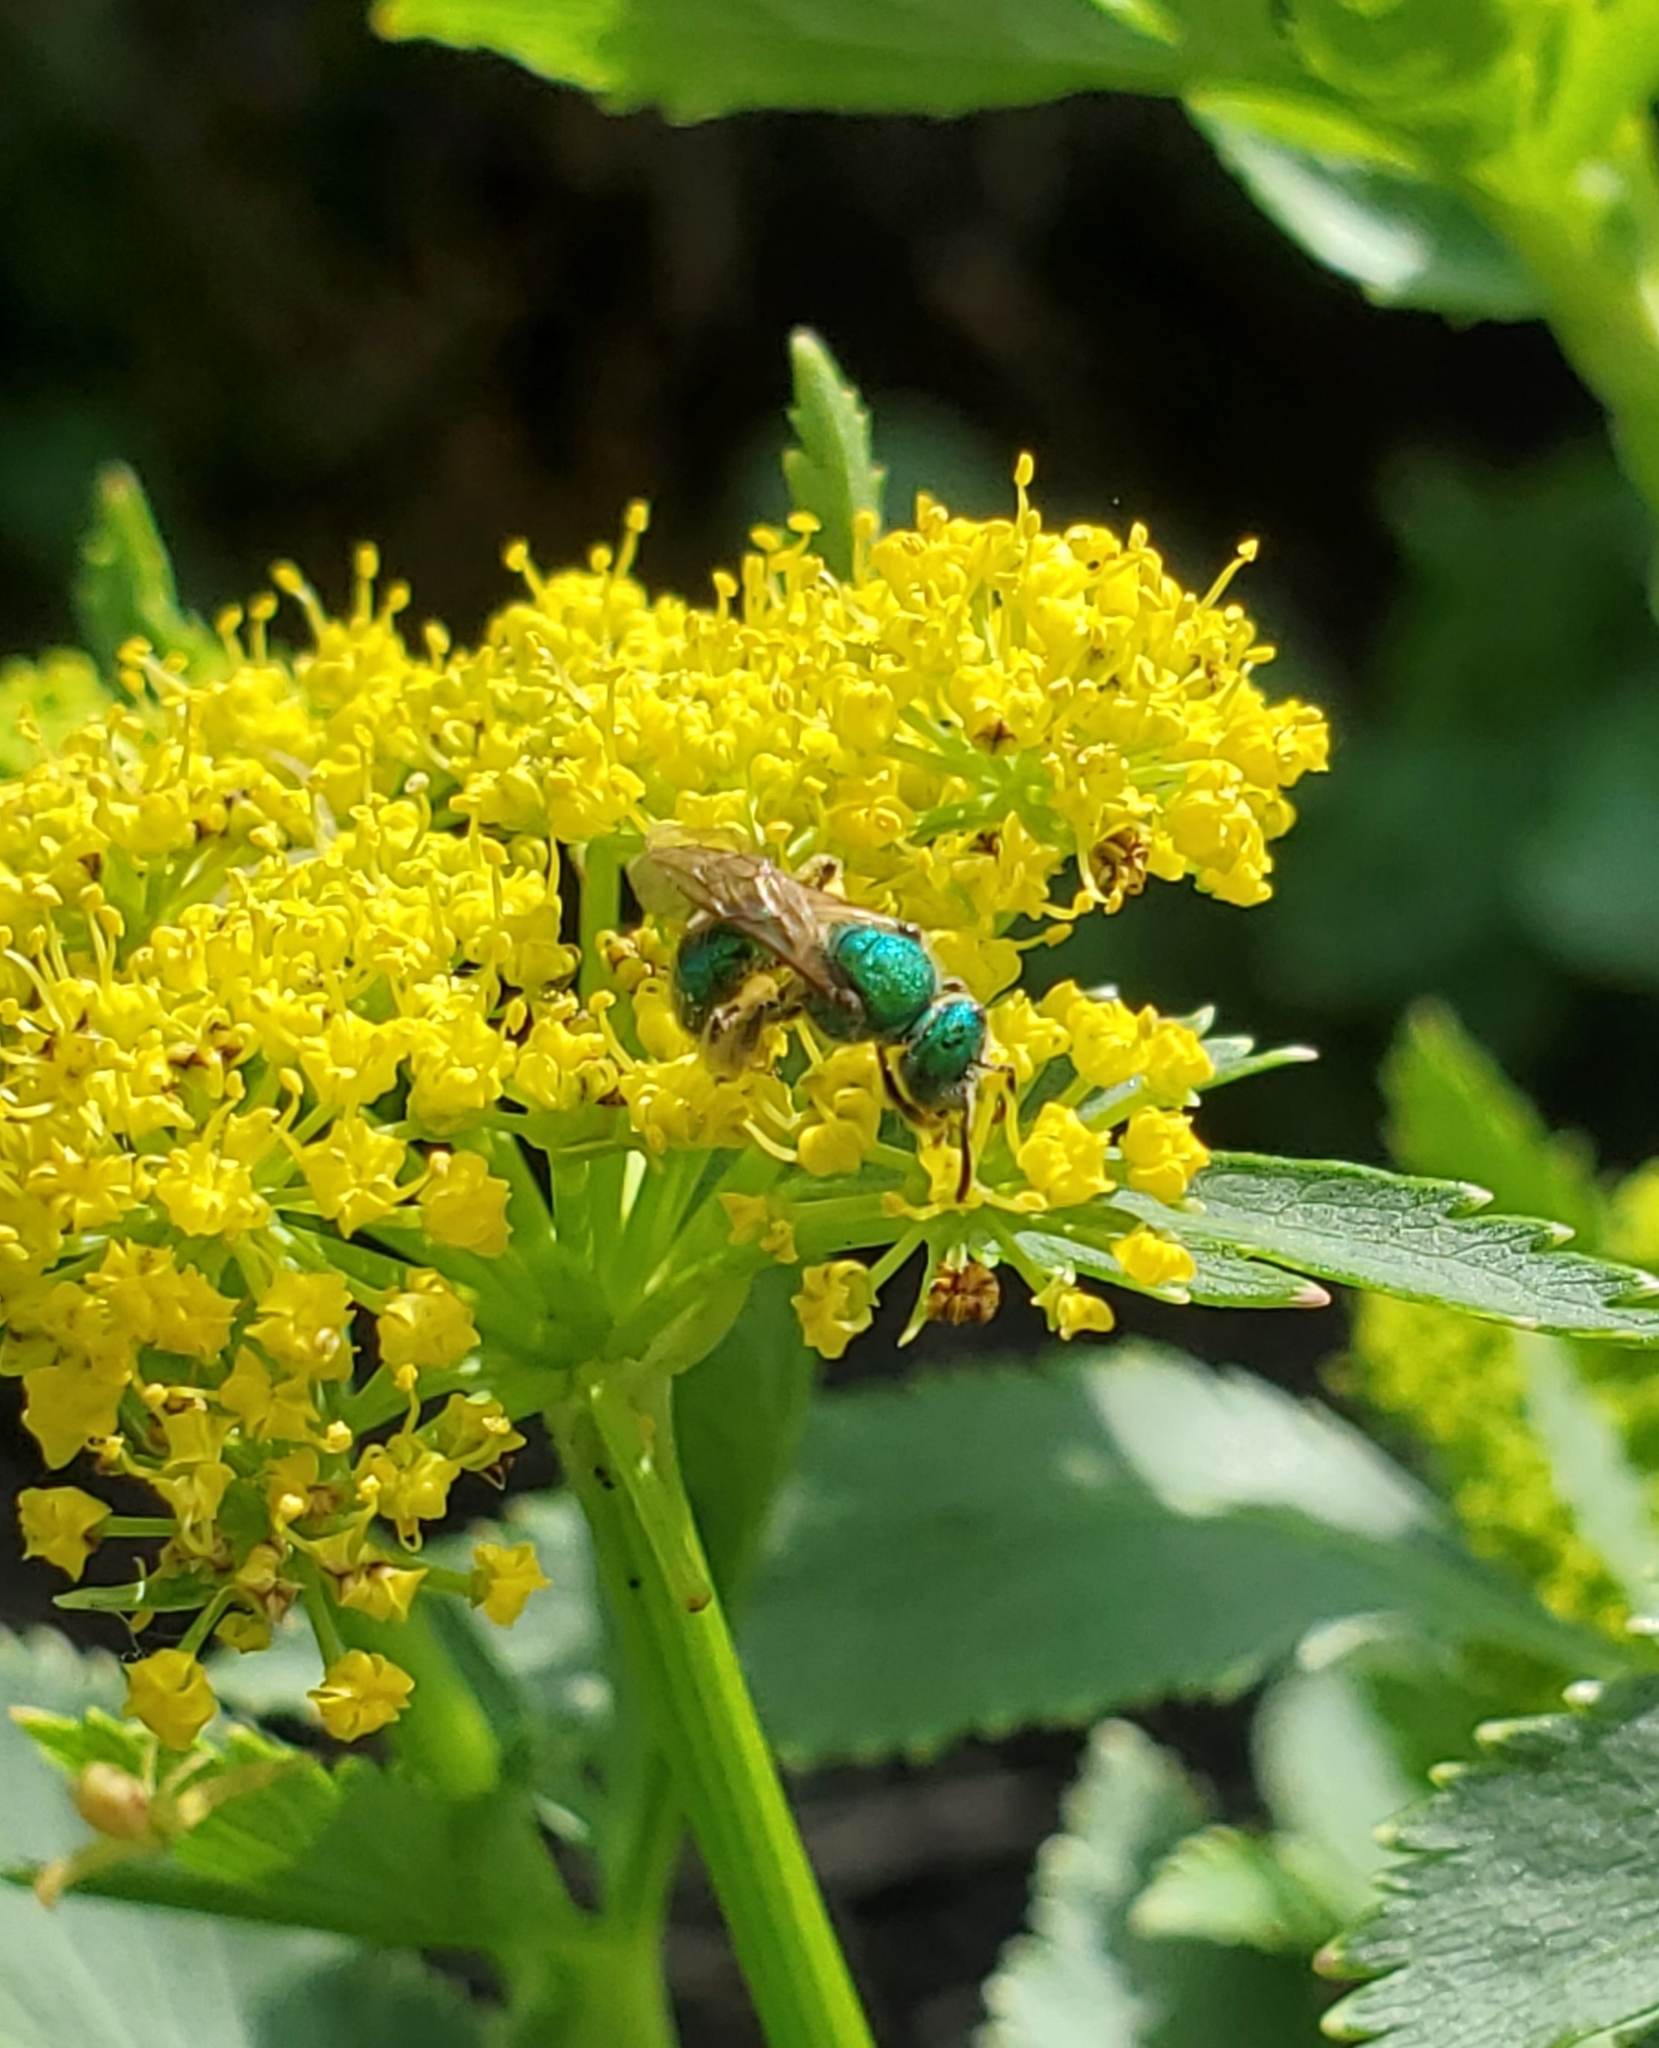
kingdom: Animalia
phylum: Arthropoda
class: Insecta
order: Hymenoptera
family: Halictidae
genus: Augochlorella
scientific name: Augochlorella aurata
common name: Golden sweat bee
